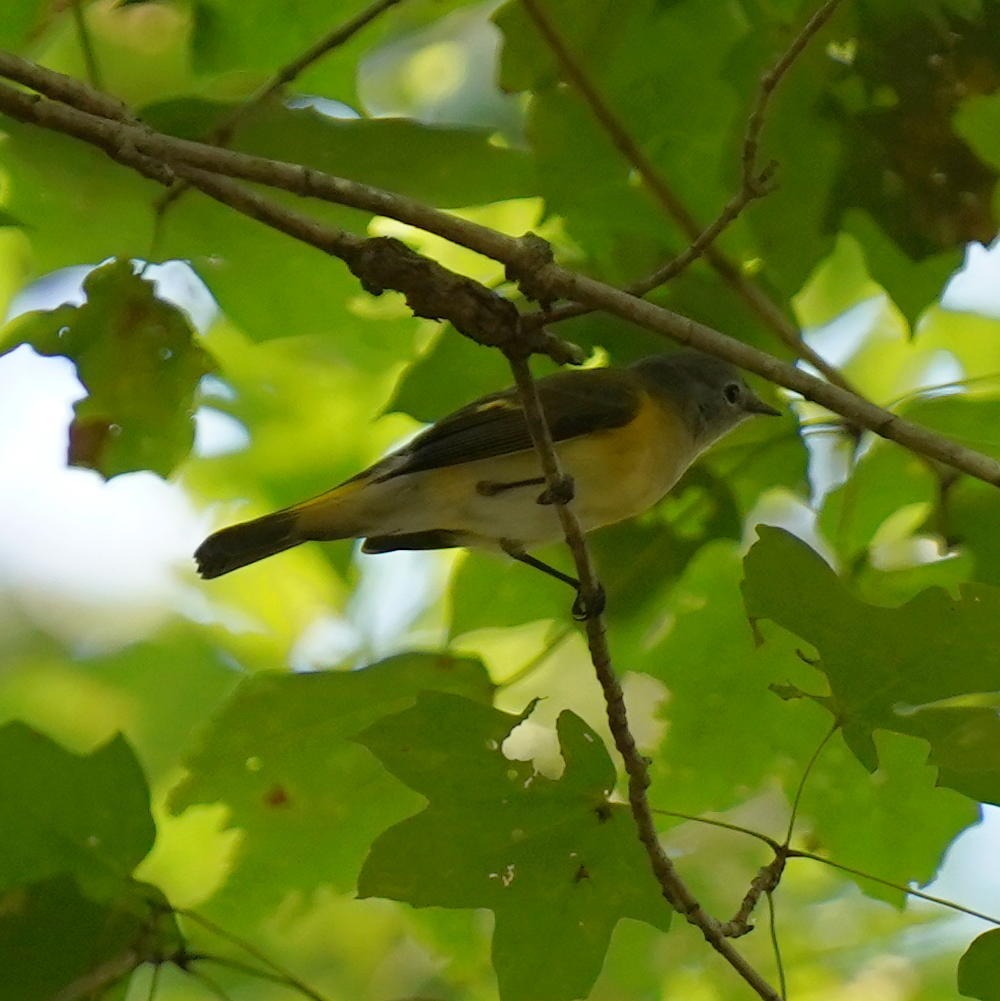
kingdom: Animalia
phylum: Chordata
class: Aves
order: Passeriformes
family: Parulidae
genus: Setophaga
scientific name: Setophaga ruticilla
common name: American redstart
